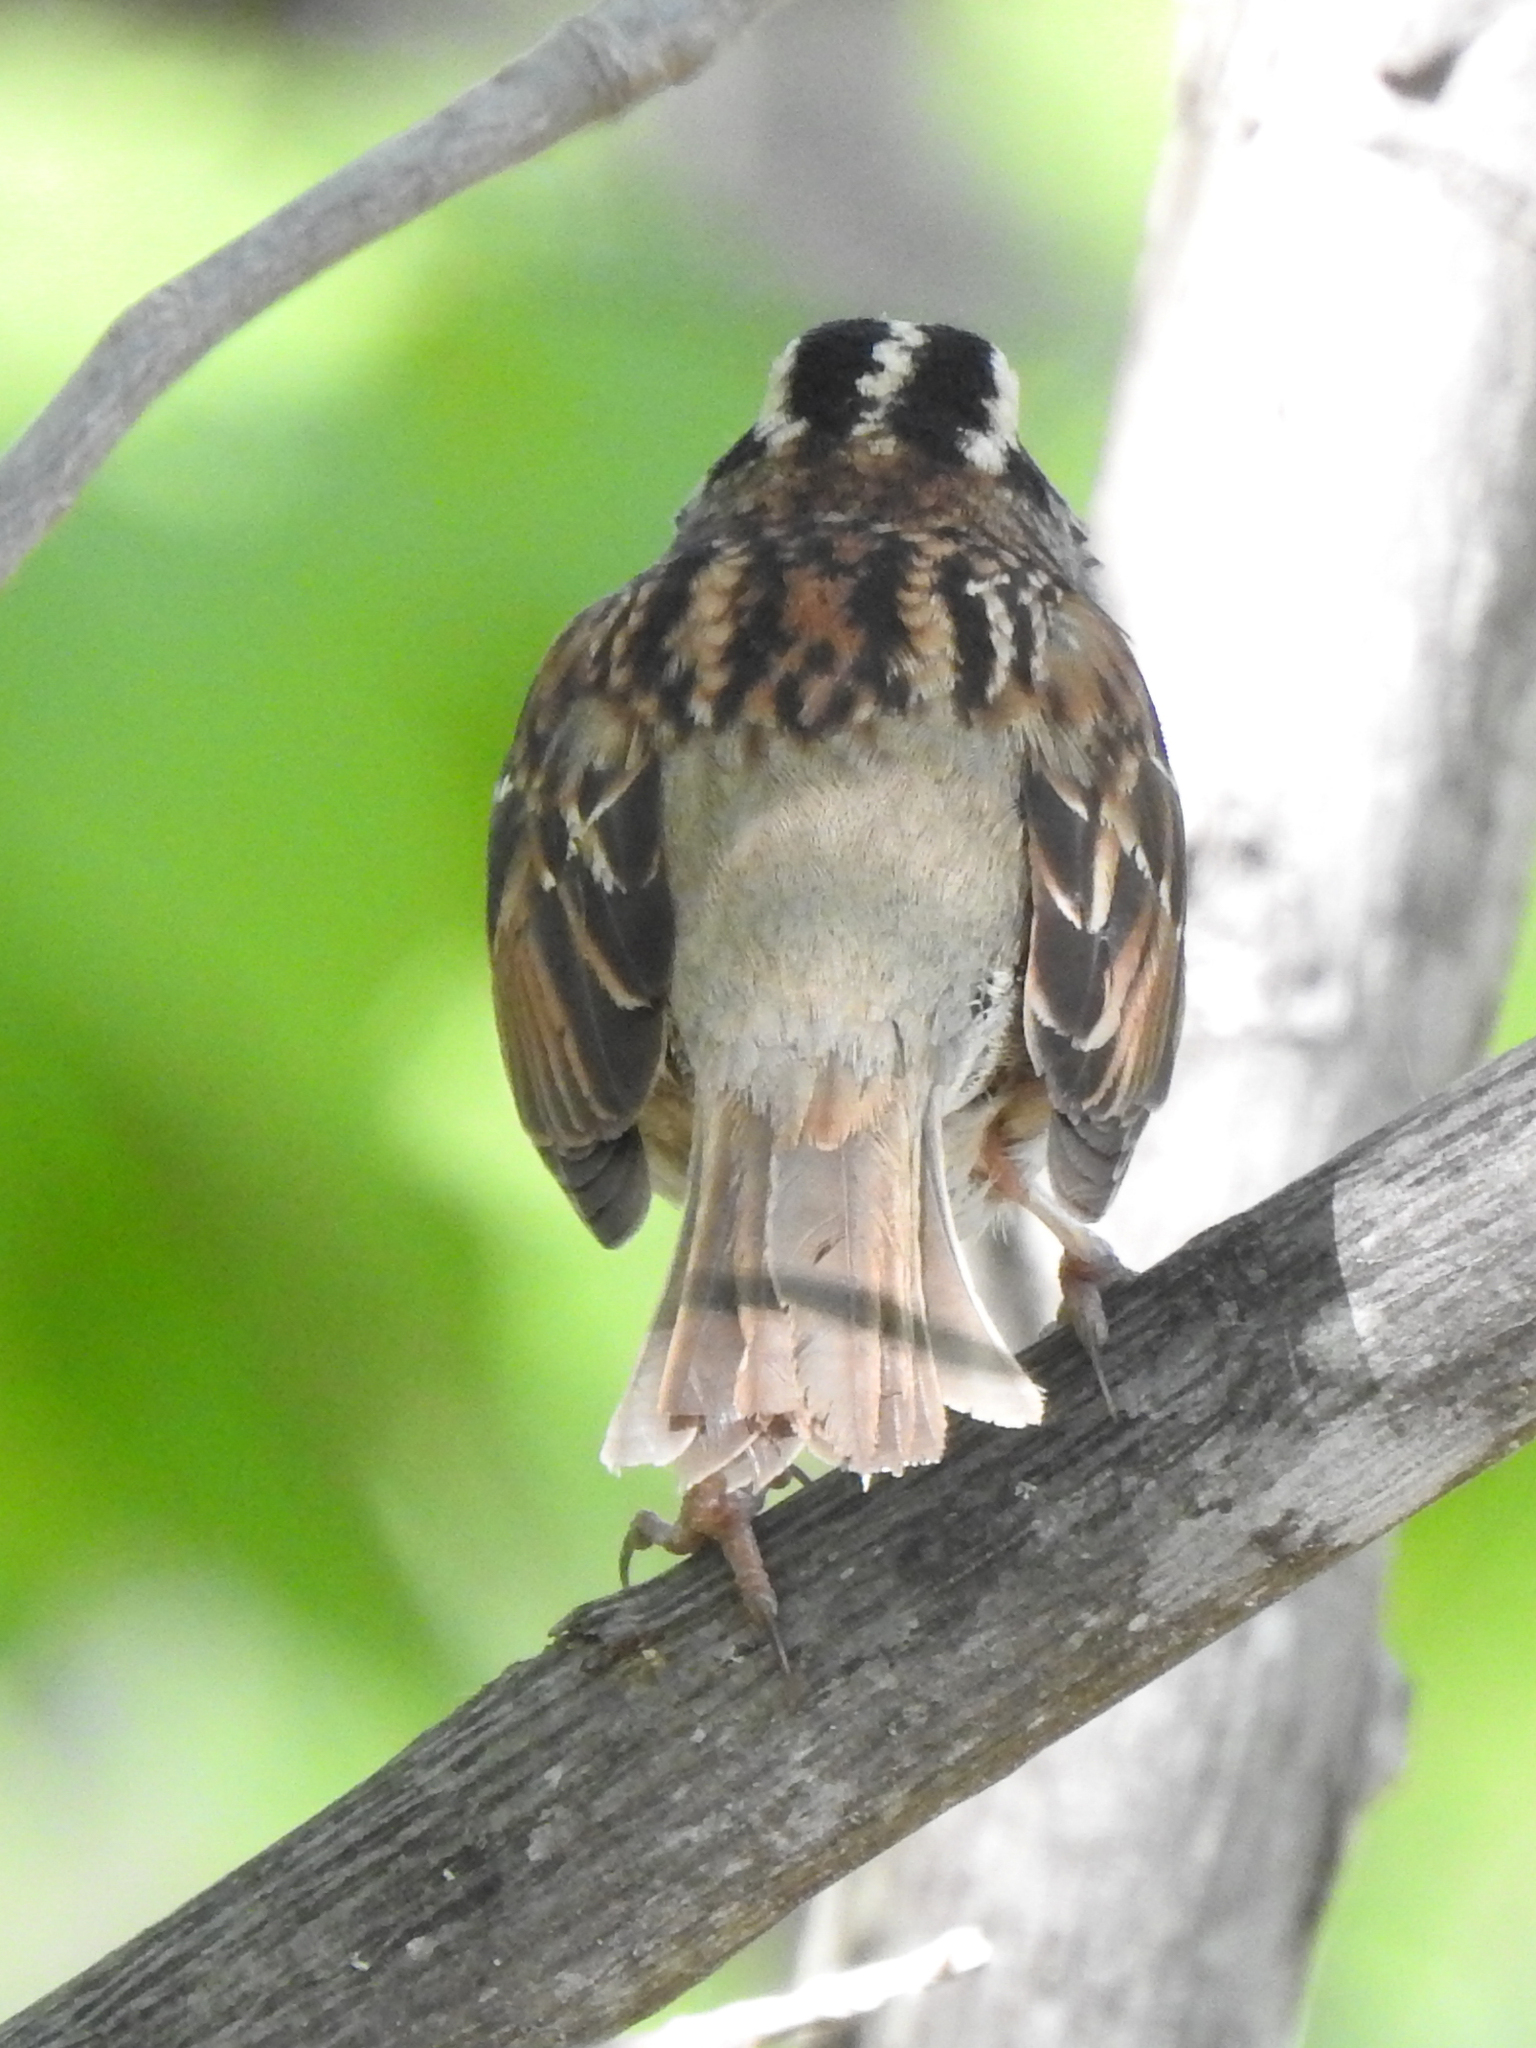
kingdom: Animalia
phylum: Chordata
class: Aves
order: Passeriformes
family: Passerellidae
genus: Zonotrichia
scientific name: Zonotrichia albicollis
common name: White-throated sparrow
